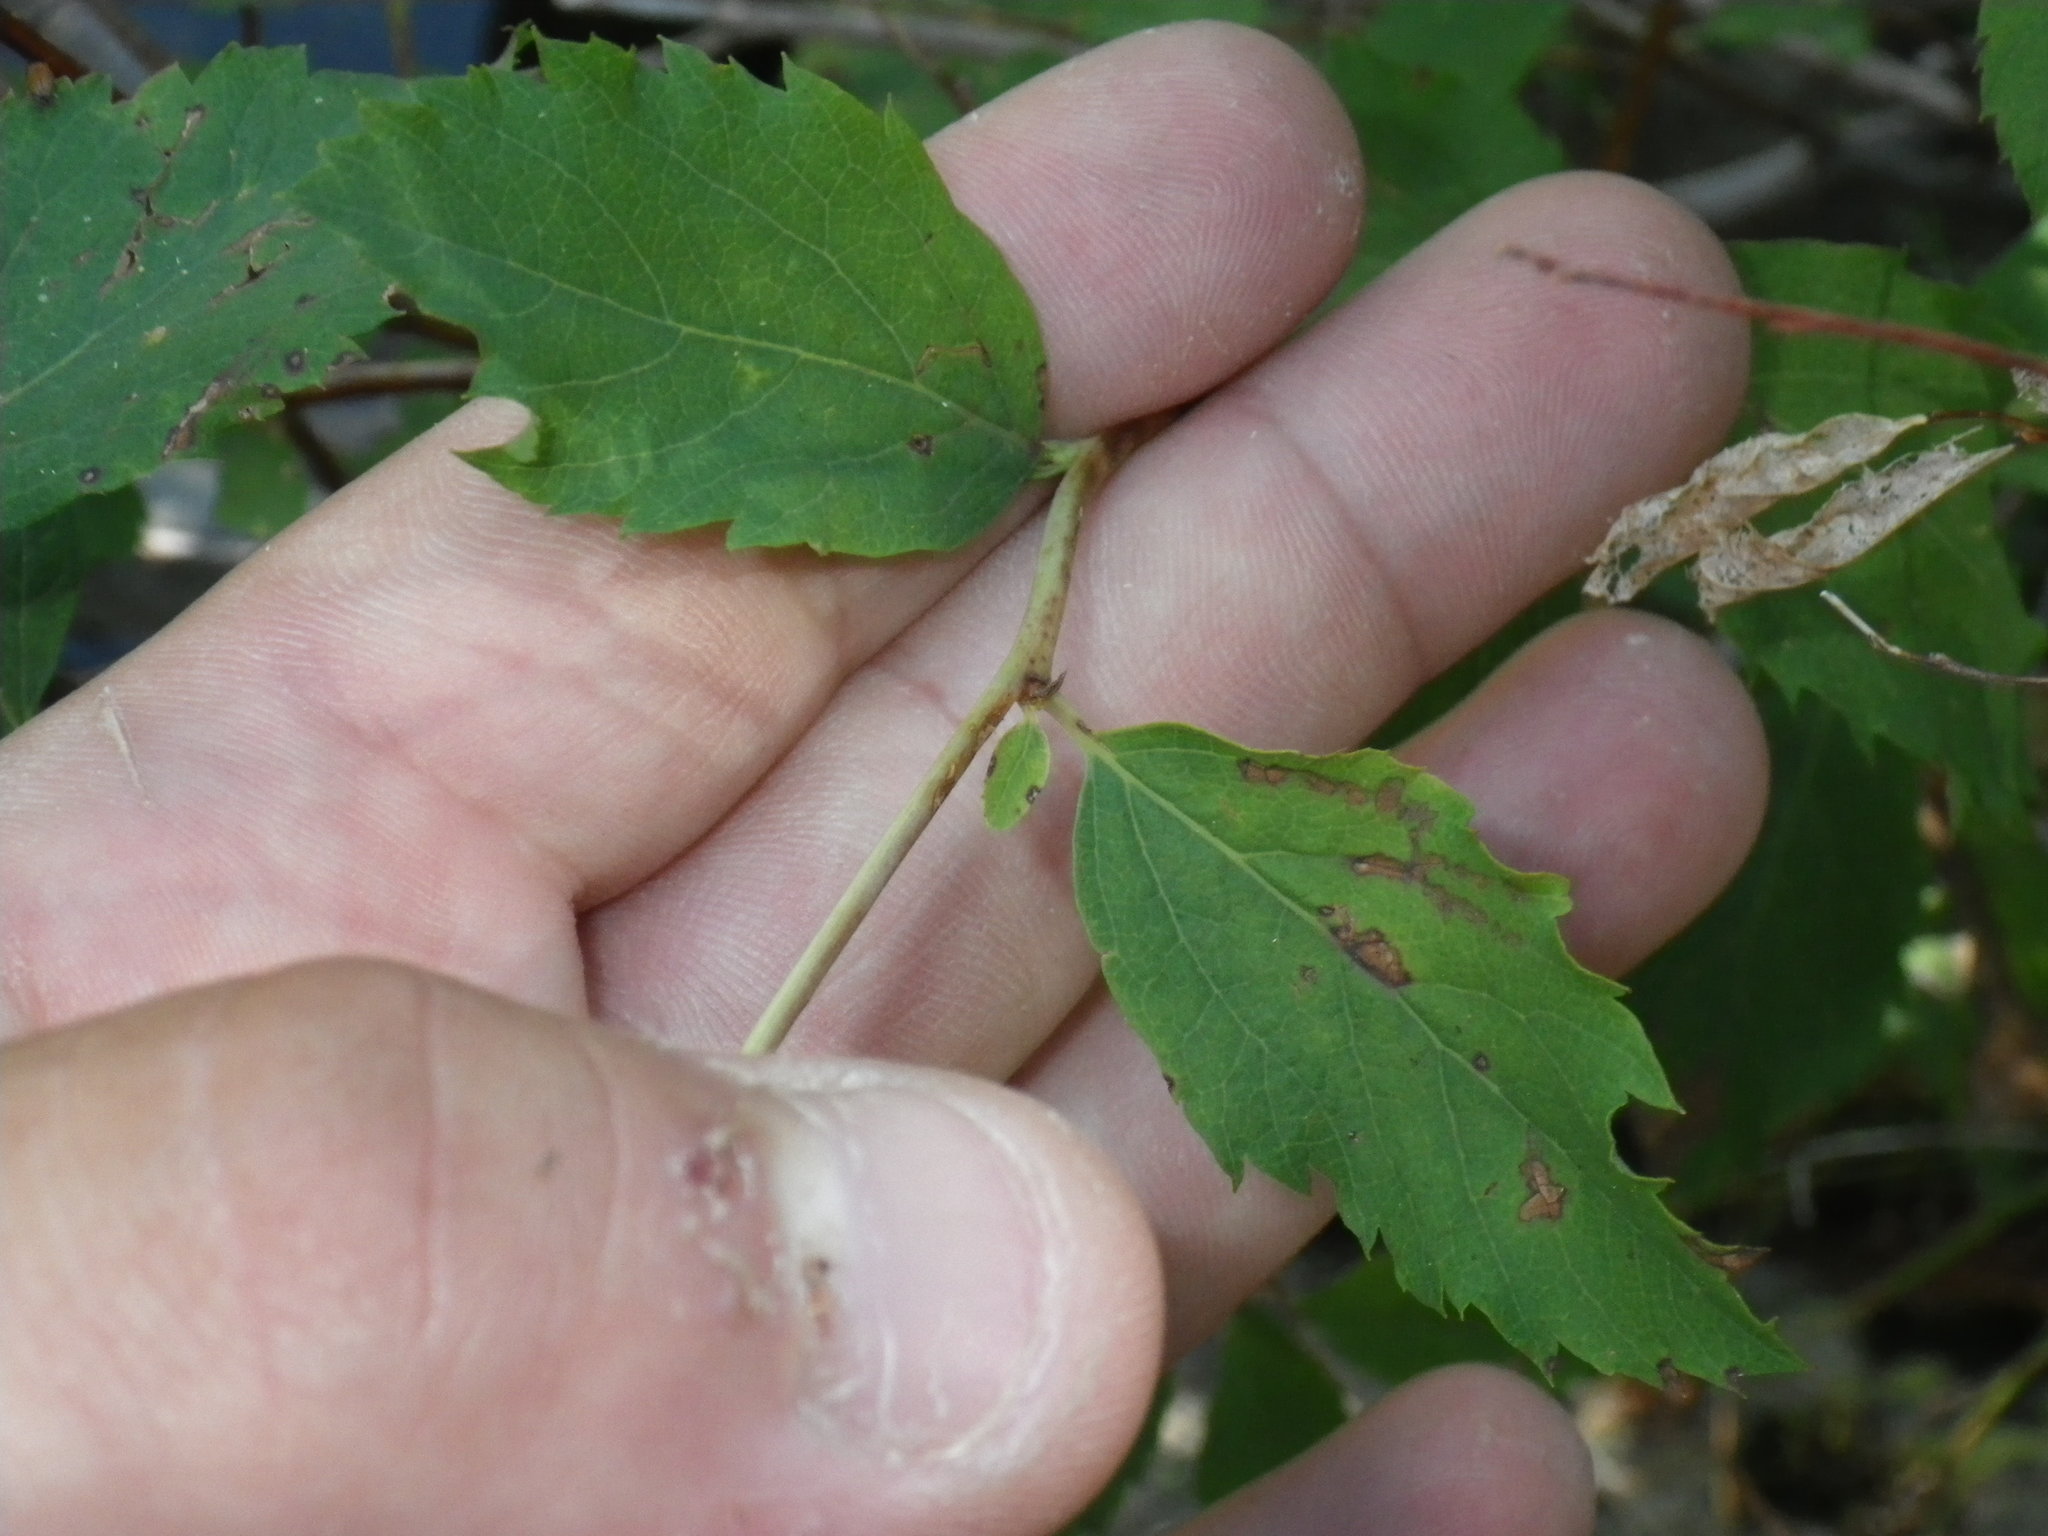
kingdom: Plantae
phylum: Tracheophyta
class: Magnoliopsida
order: Rosales
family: Rosaceae
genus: Spiraea
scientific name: Spiraea splendens
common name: Subalpine meadowsweet
